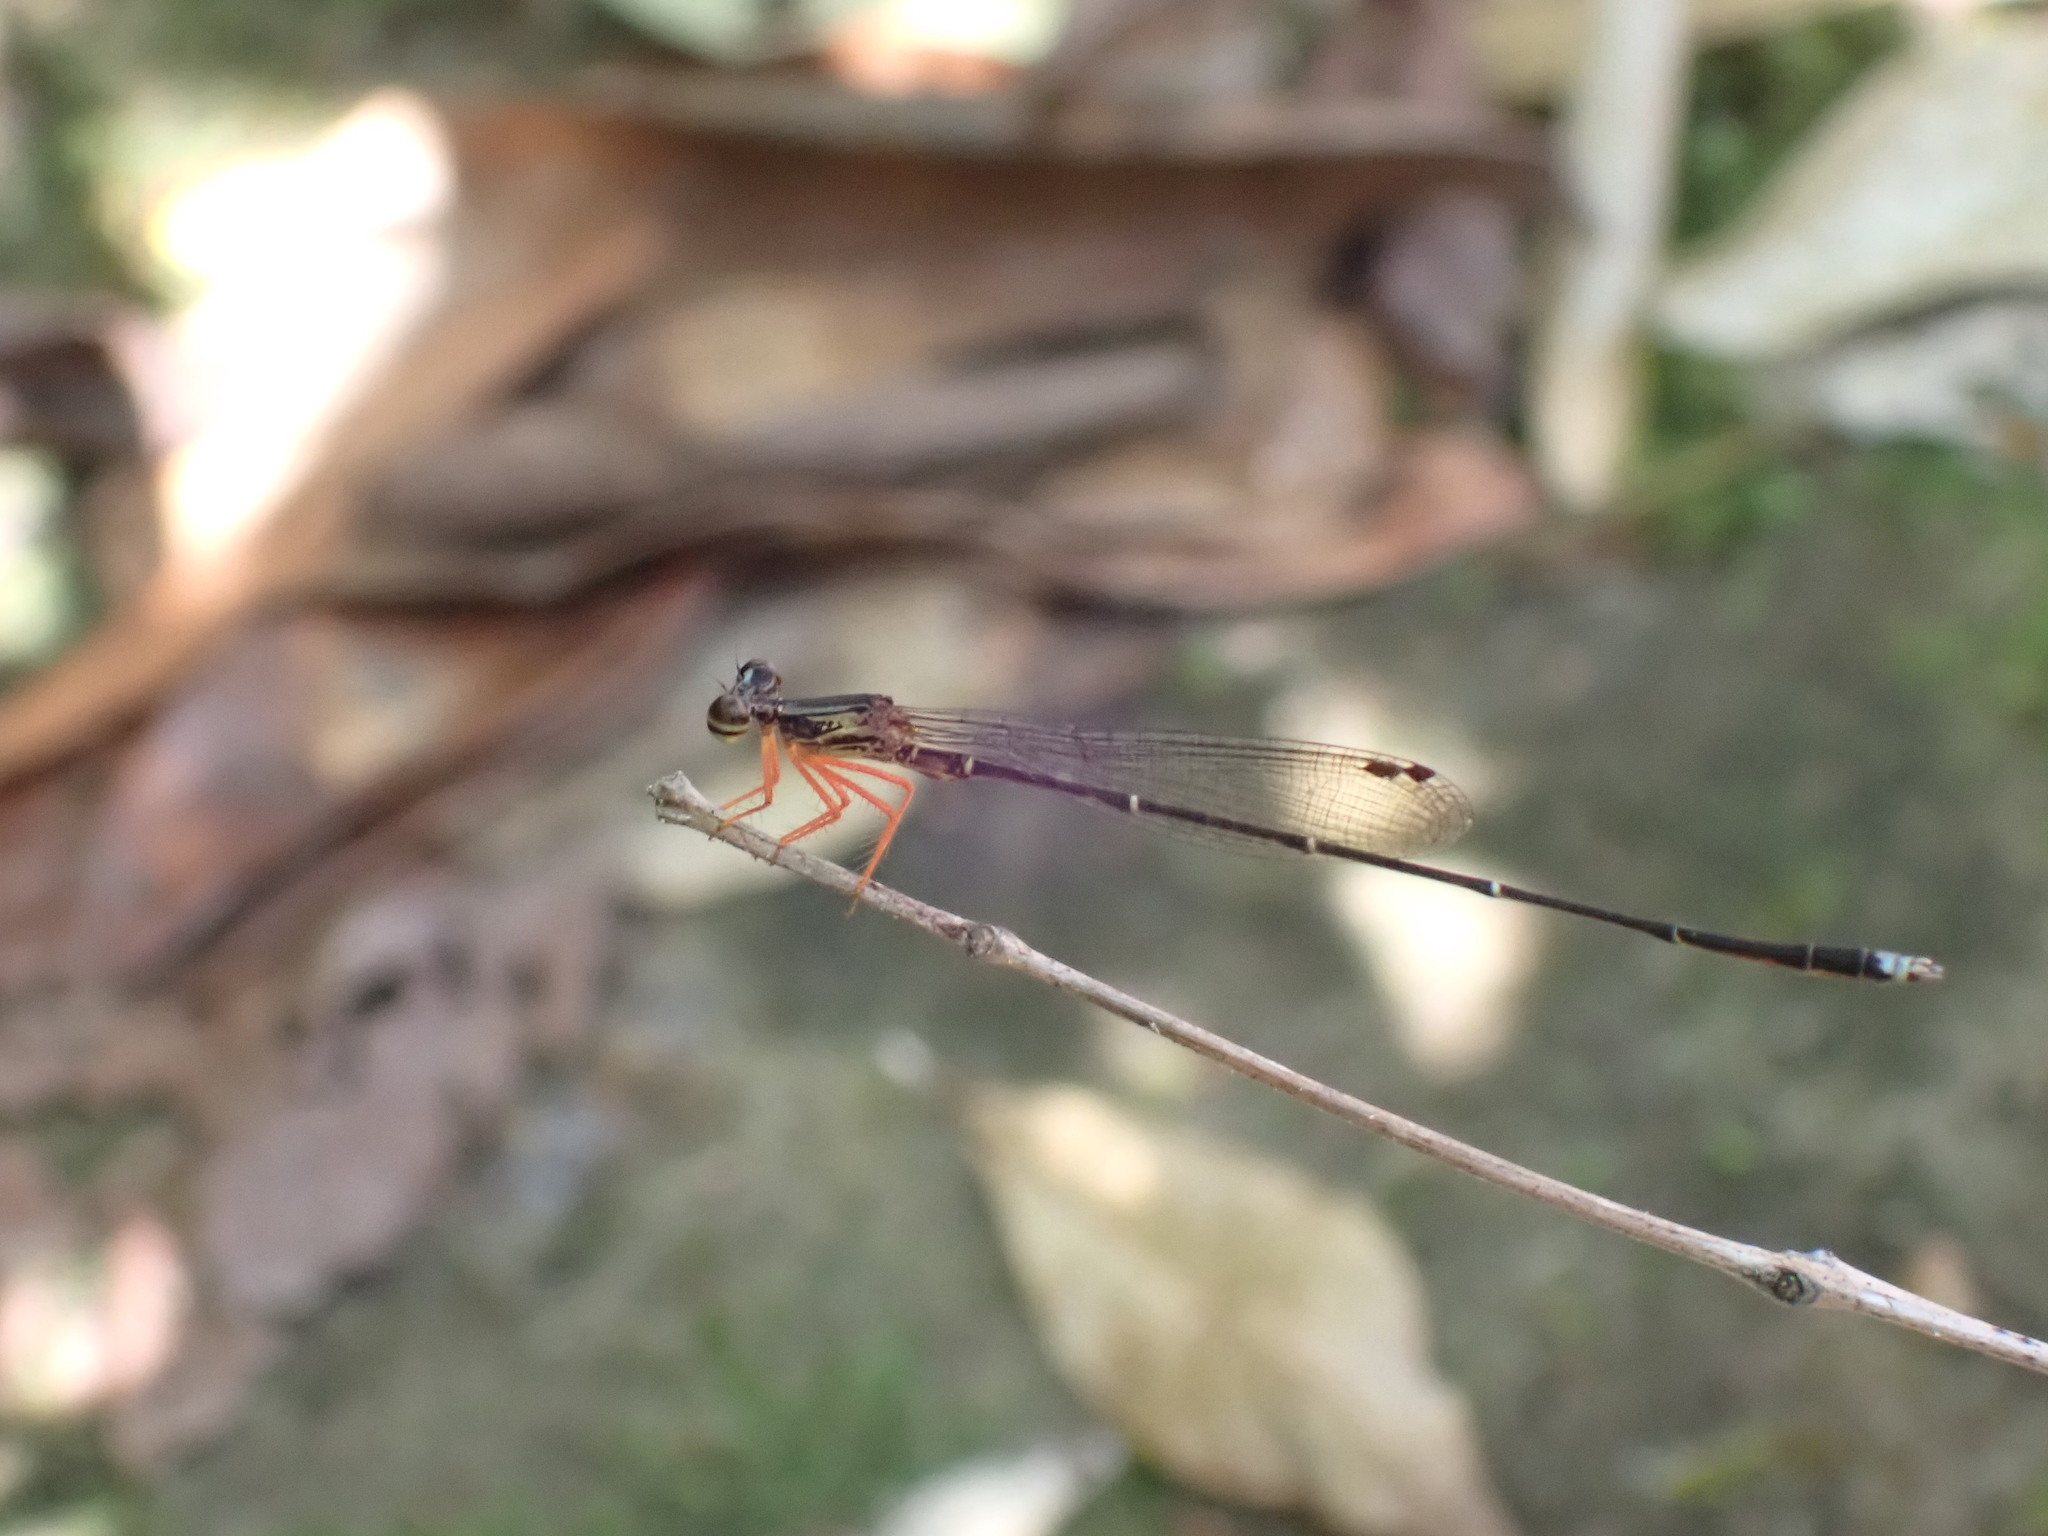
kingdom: Animalia
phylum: Arthropoda
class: Insecta
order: Odonata
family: Platycnemididae
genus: Copera
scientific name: Copera vittata
